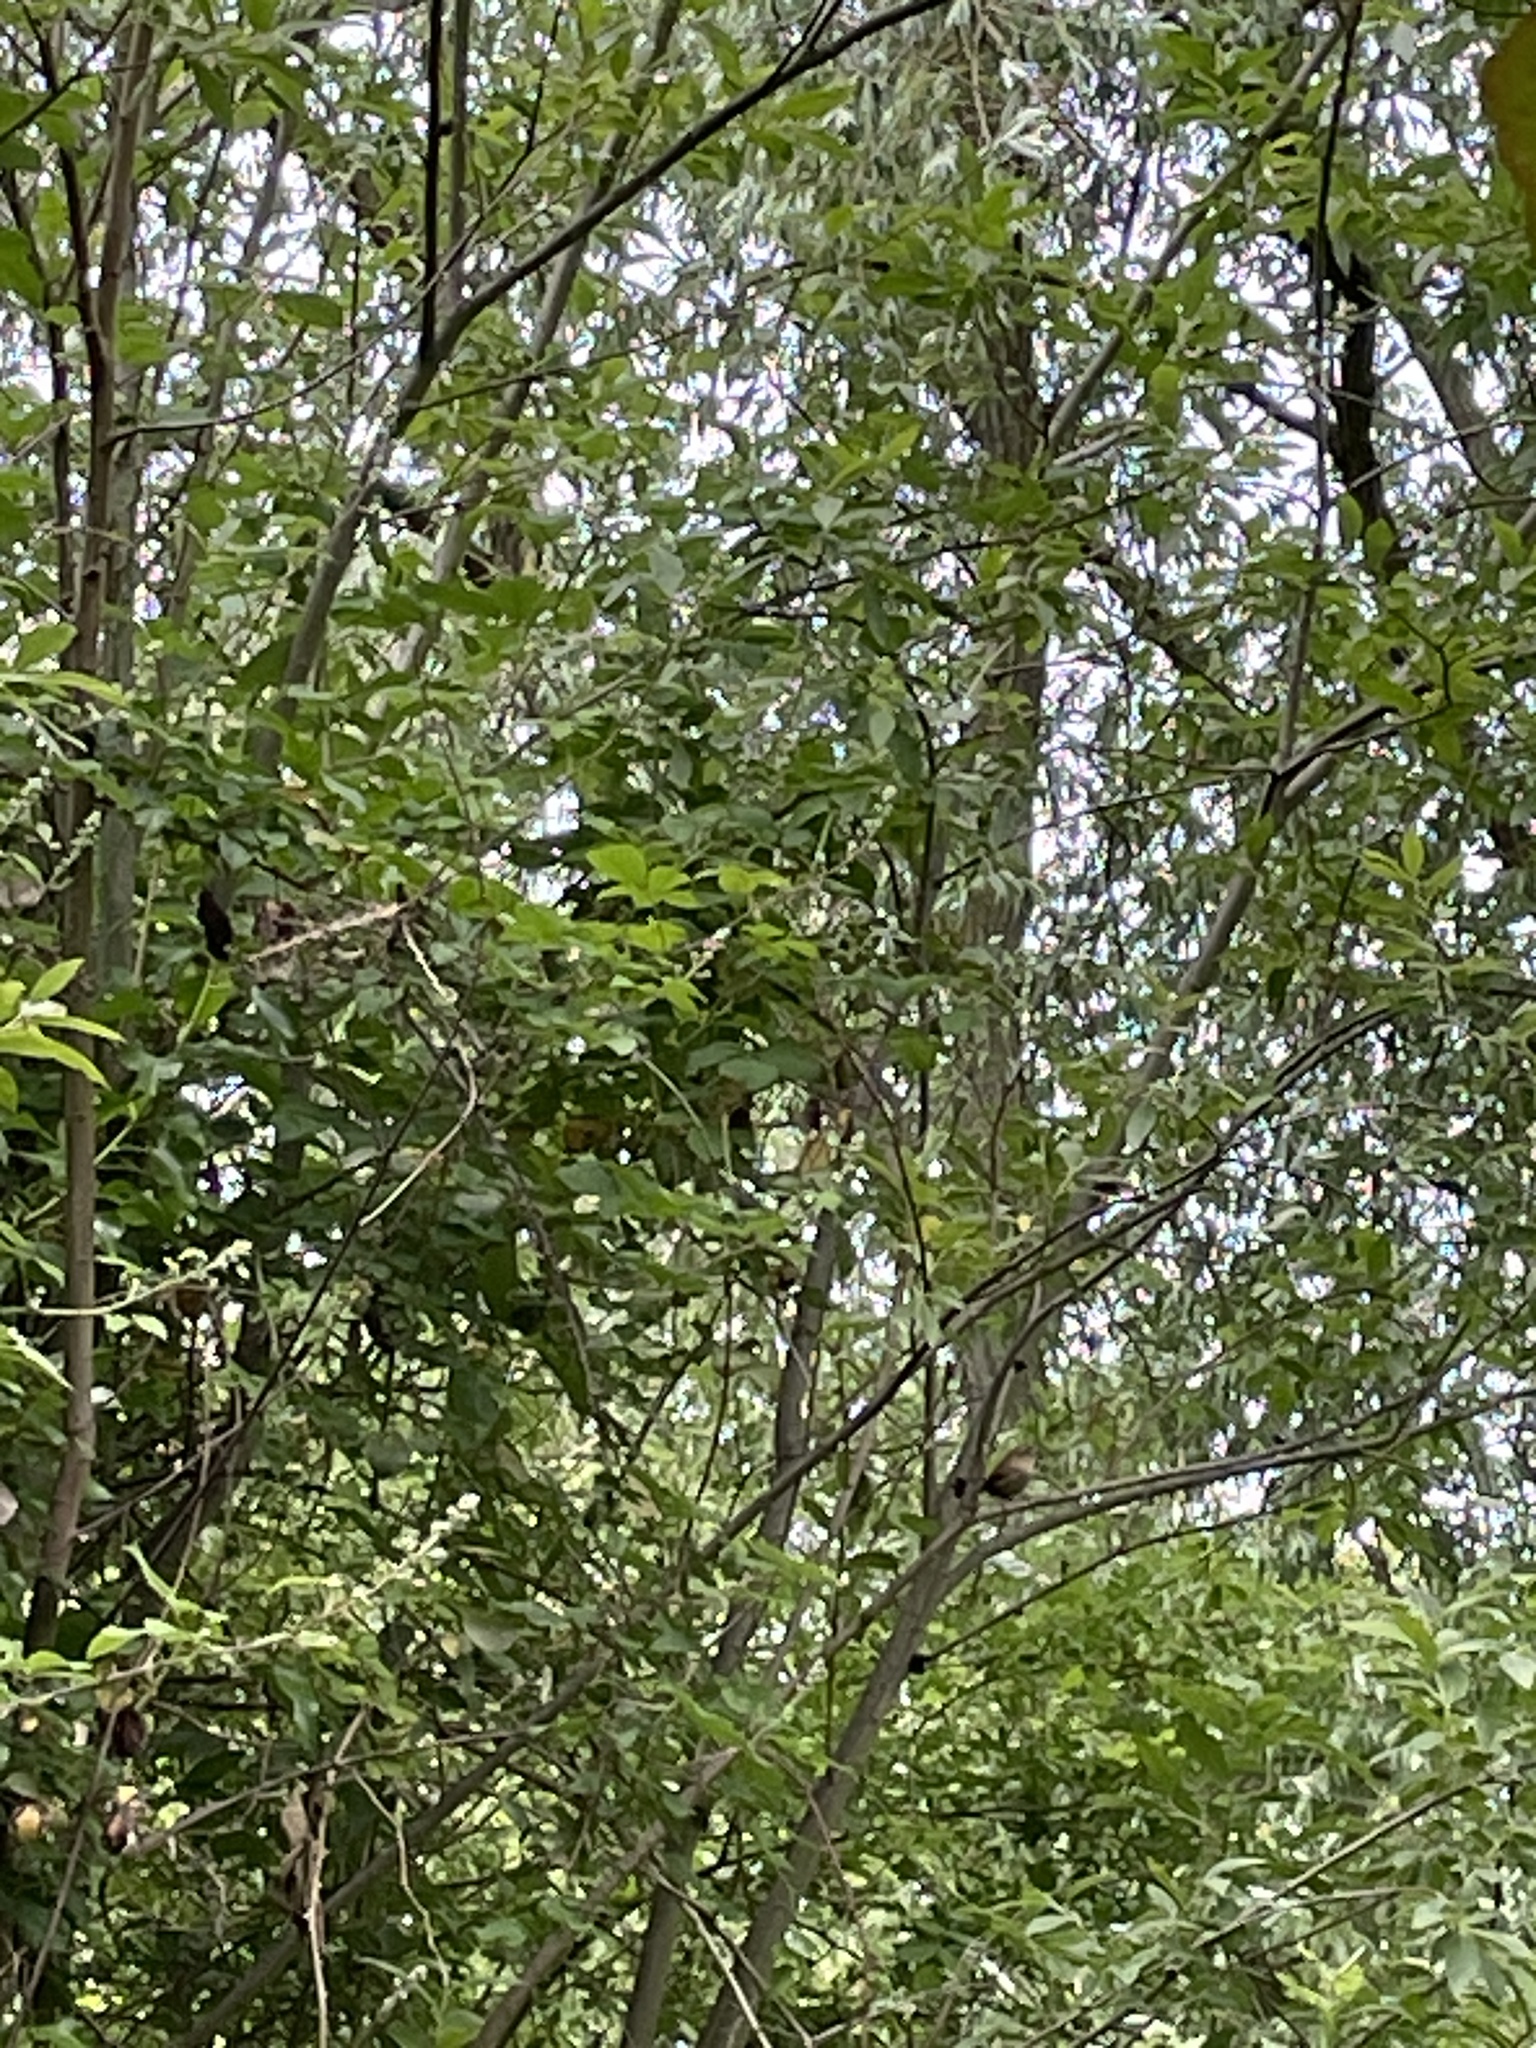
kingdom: Animalia
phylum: Chordata
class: Aves
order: Passeriformes
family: Troglodytidae
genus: Troglodytes
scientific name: Troglodytes troglodytes
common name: Eurasian wren
